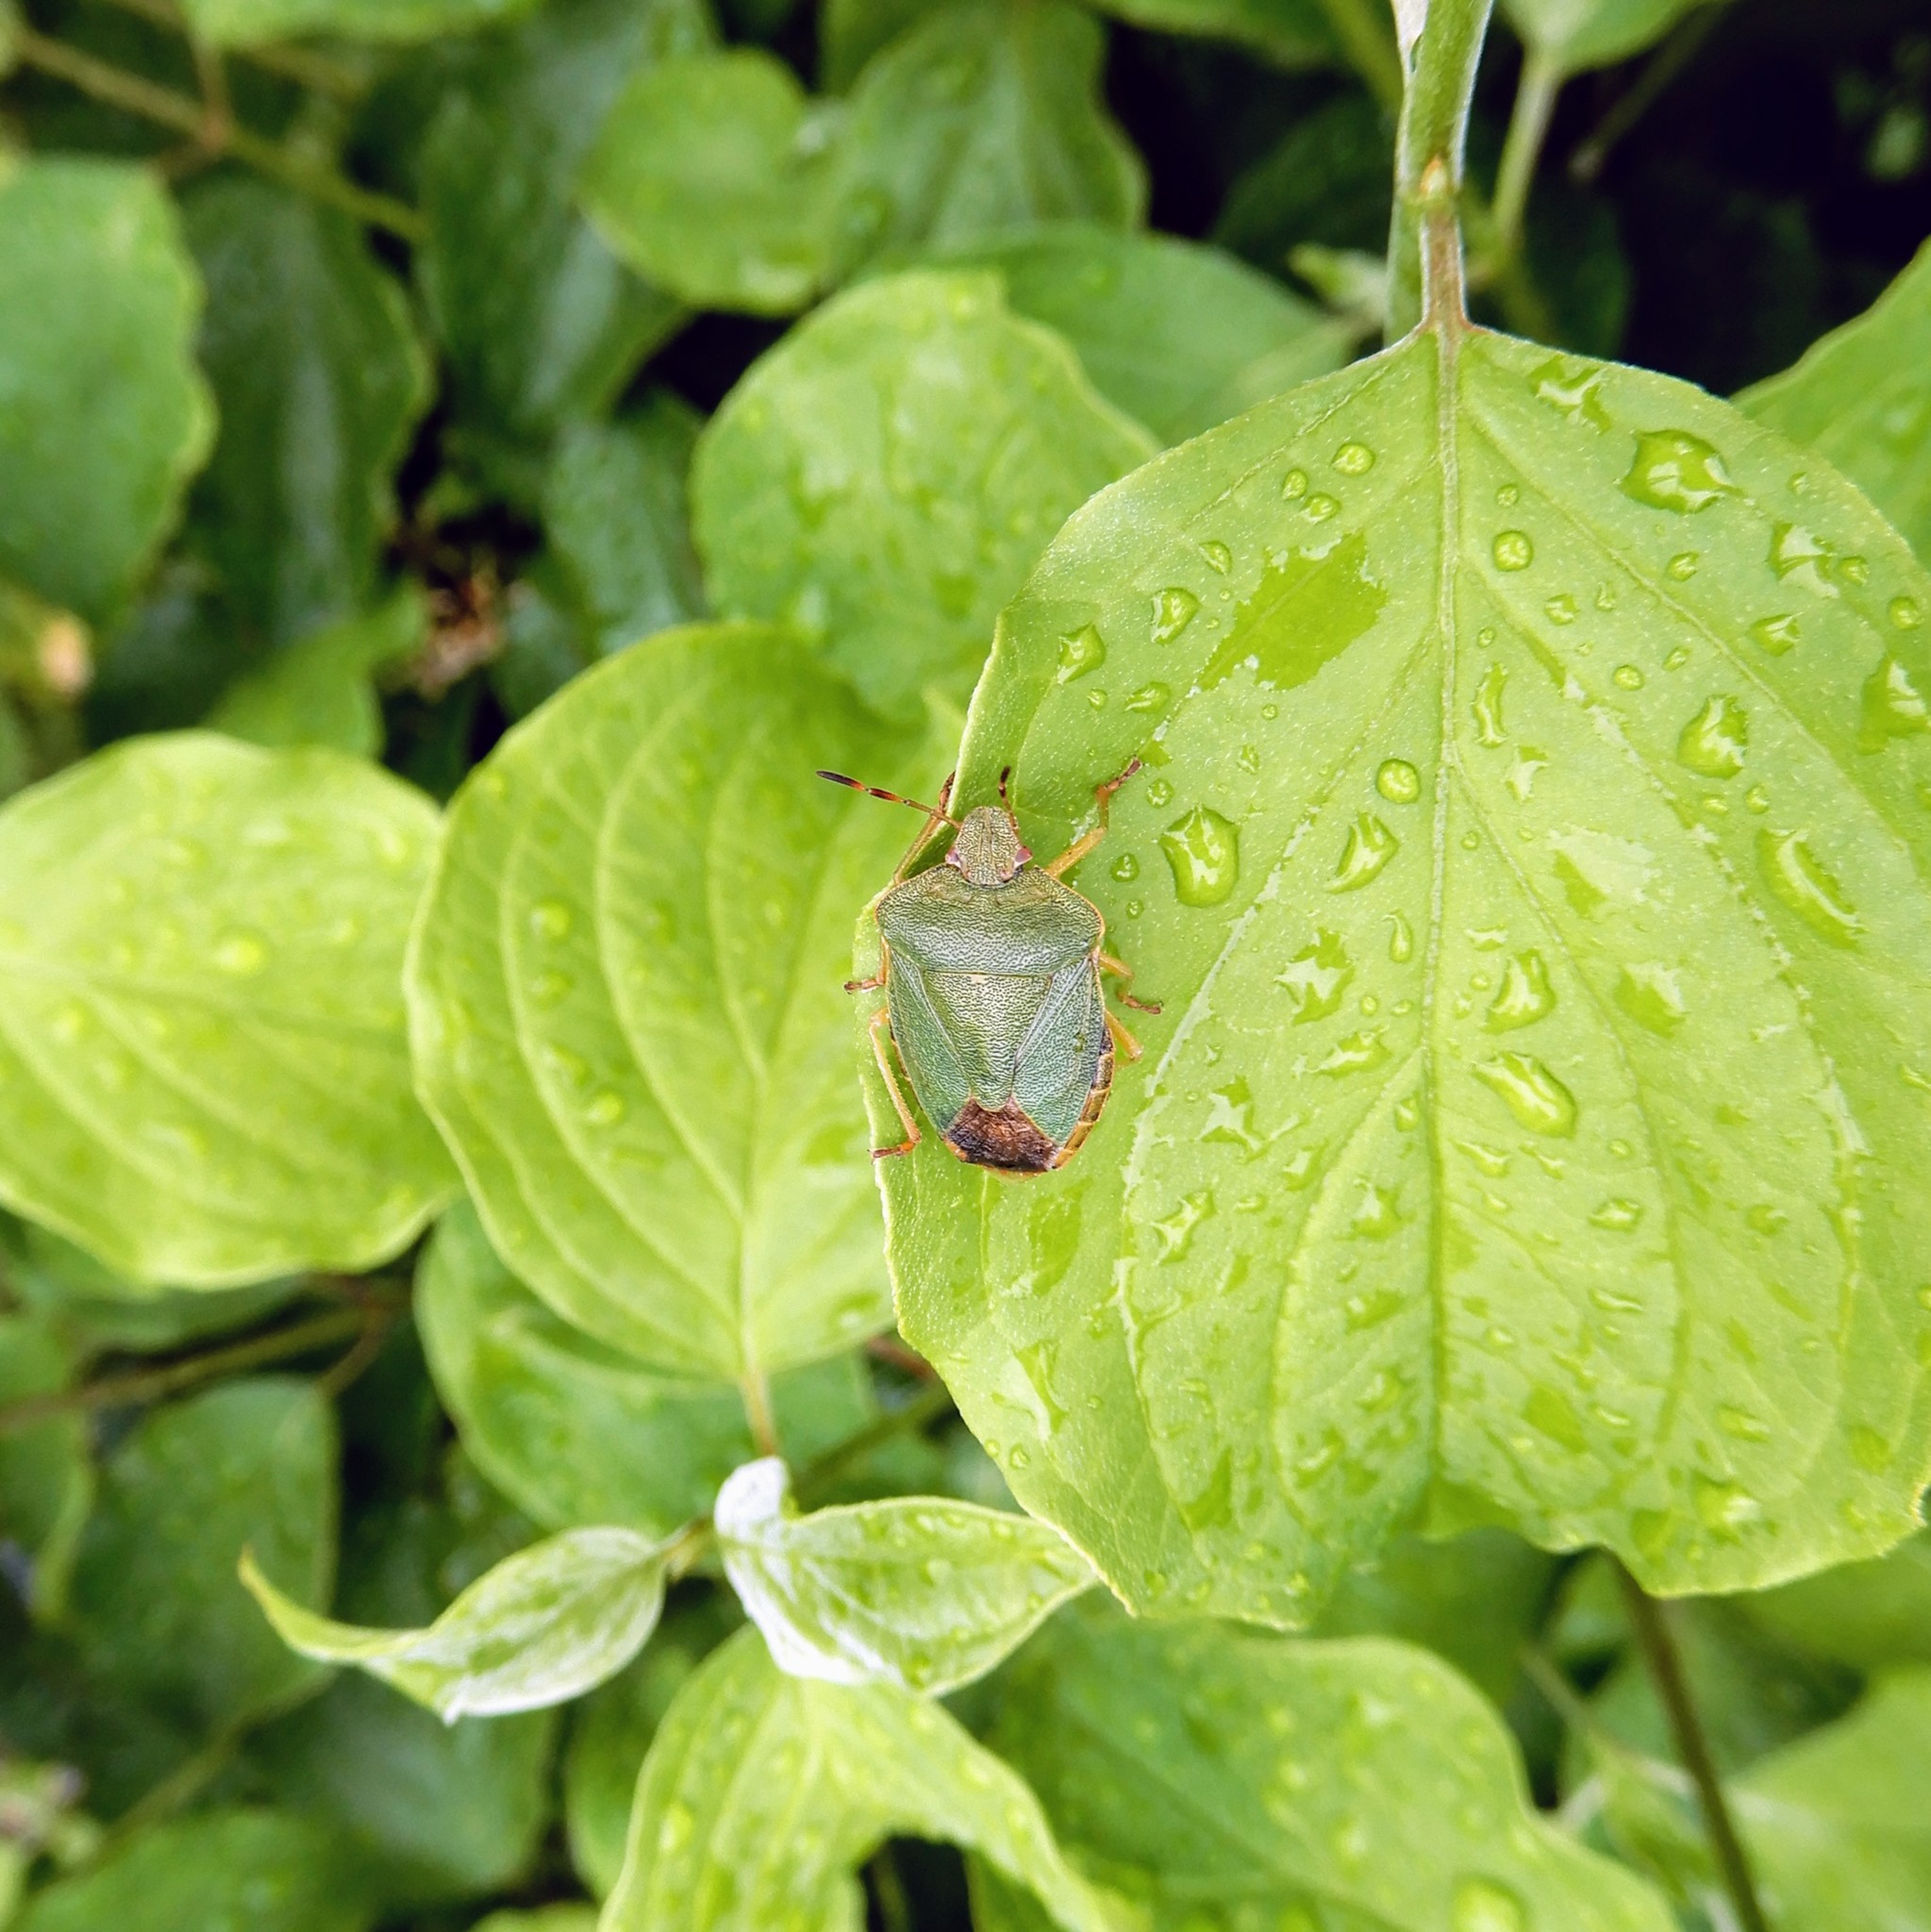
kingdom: Animalia
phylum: Arthropoda
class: Insecta
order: Hemiptera
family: Pentatomidae
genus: Palomena
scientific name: Palomena prasina
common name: Green shieldbug
